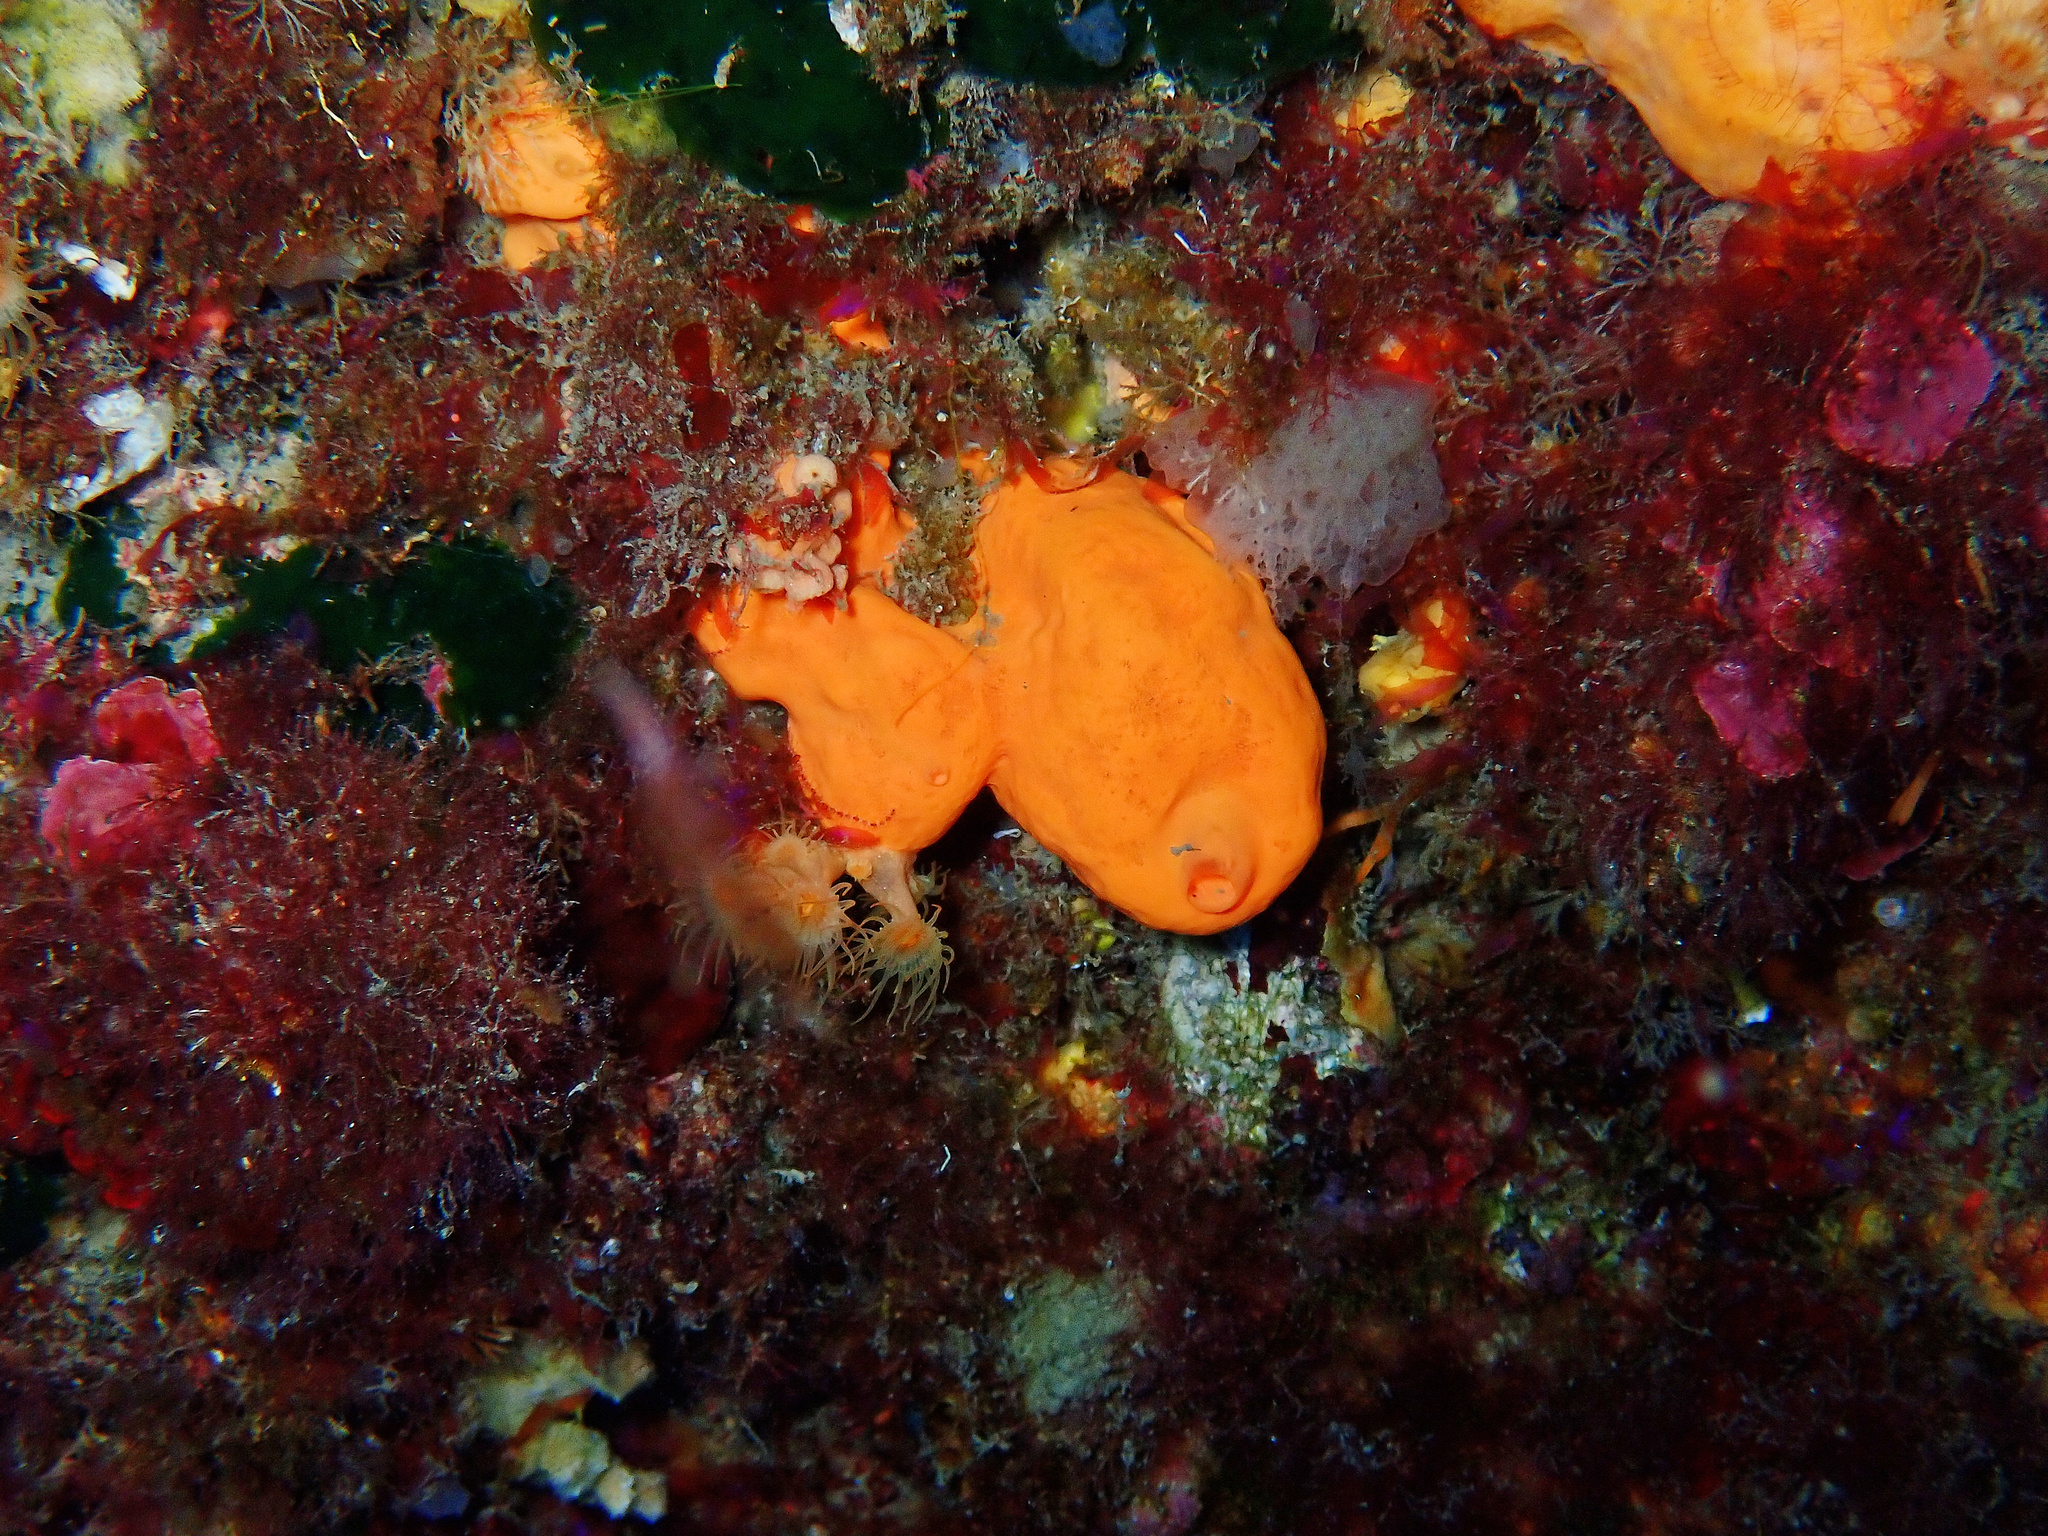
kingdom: Animalia
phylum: Porifera
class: Demospongiae
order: Agelasida
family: Agelasidae
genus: Agelas
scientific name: Agelas oroides
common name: Maltese sponge
